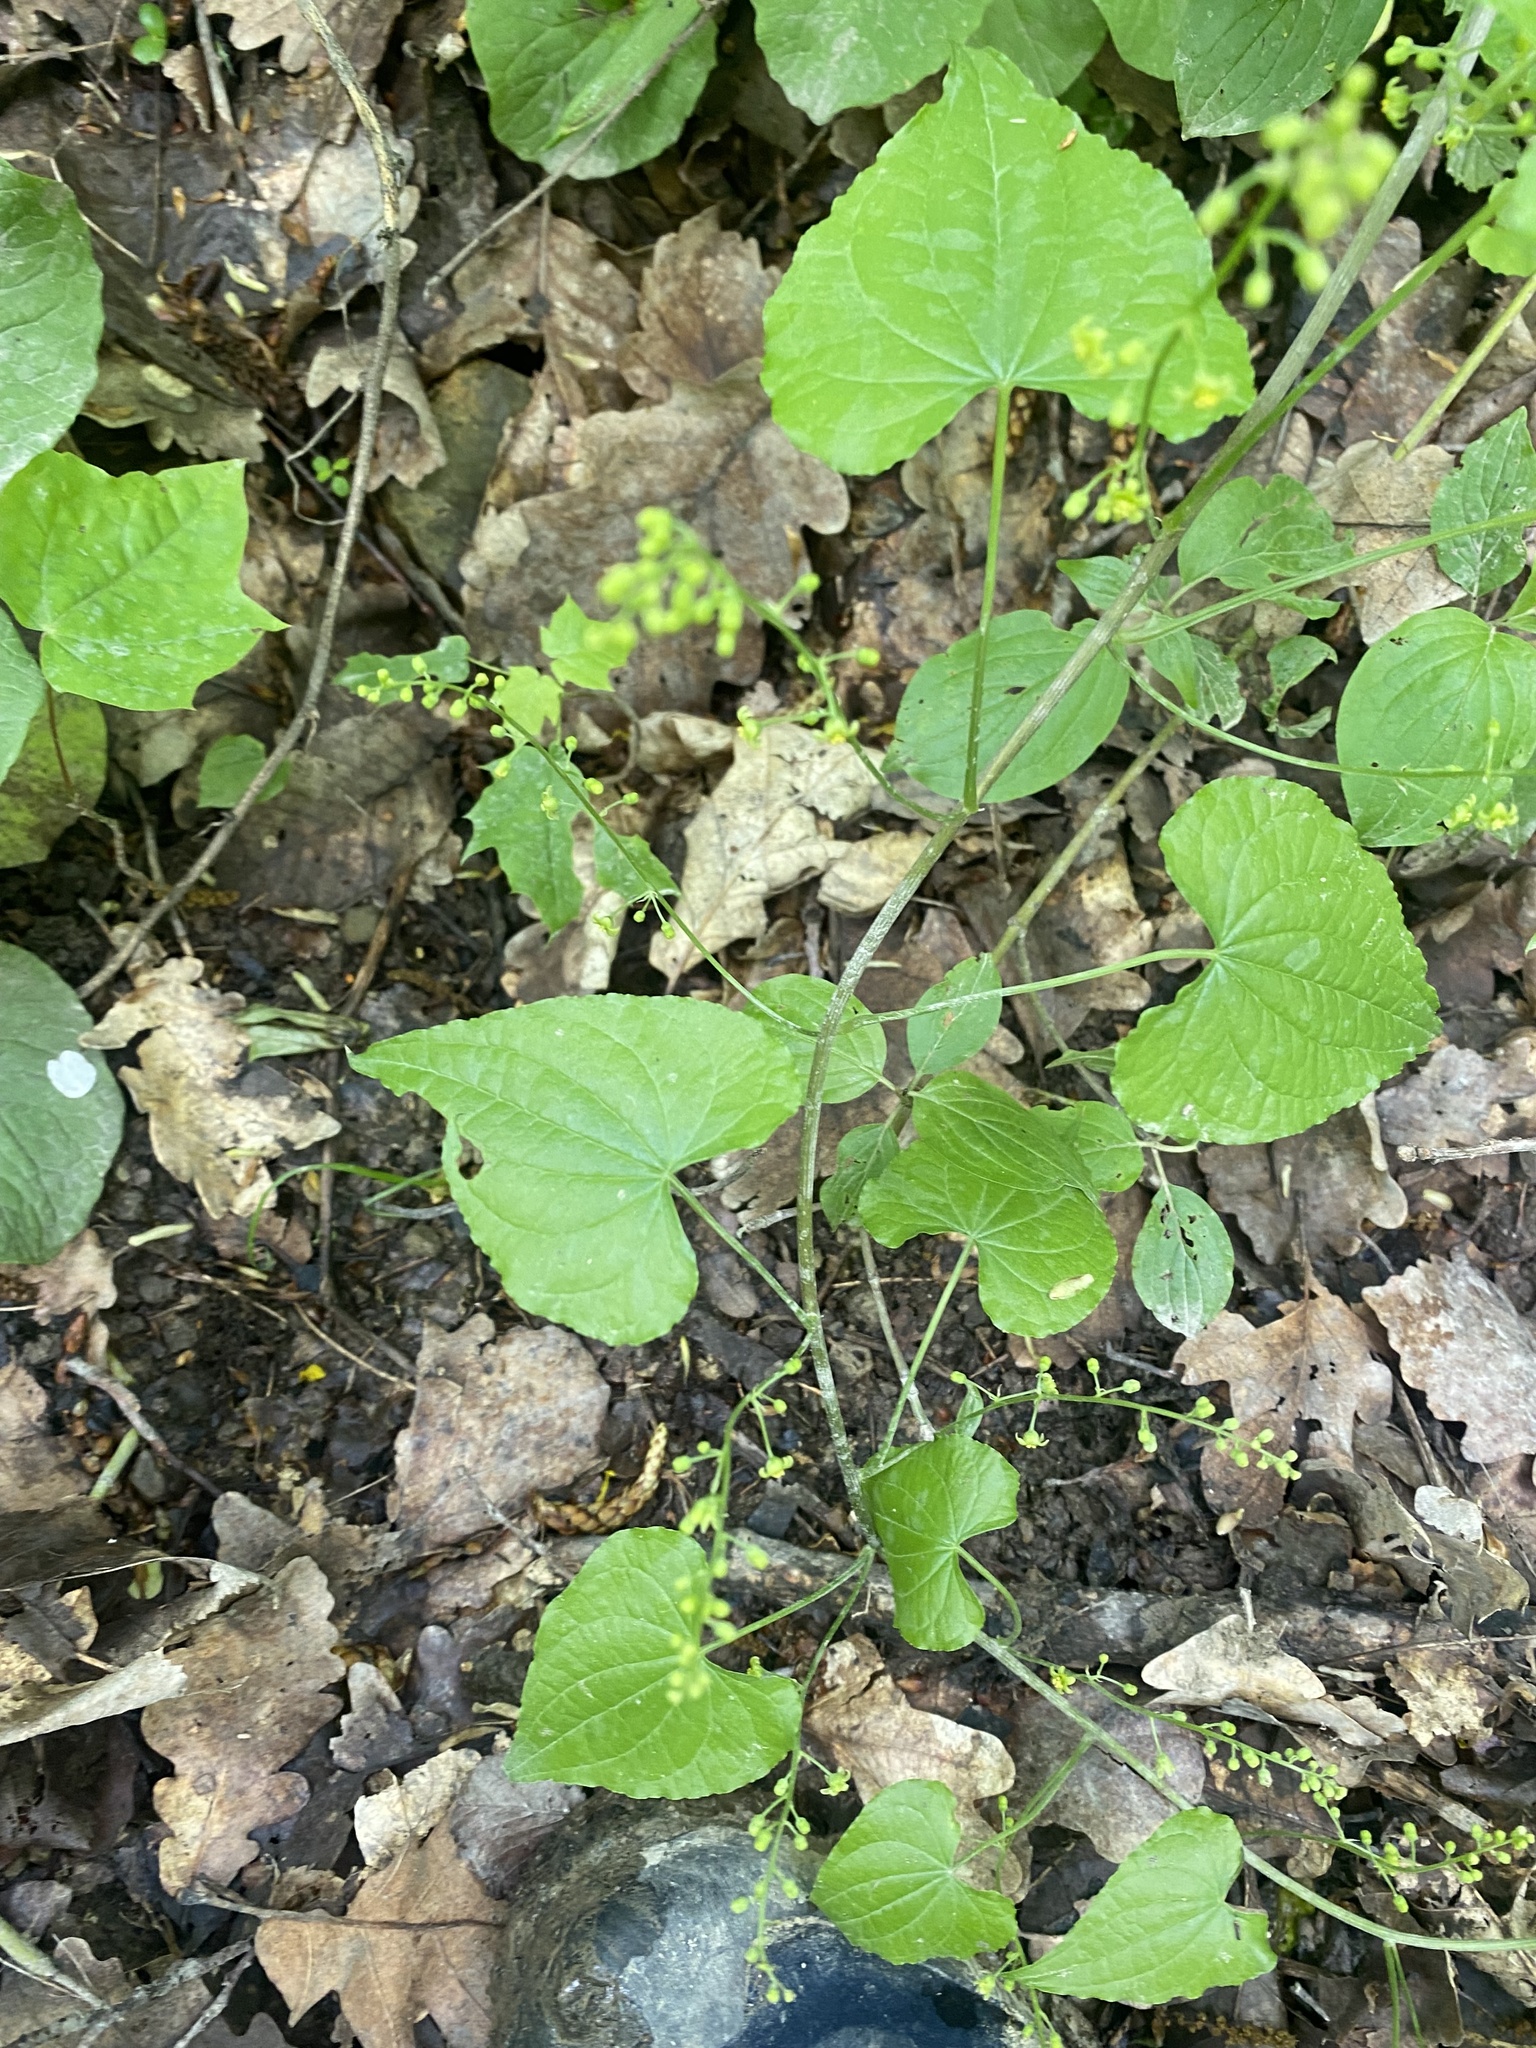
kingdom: Plantae
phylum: Tracheophyta
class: Liliopsida
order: Dioscoreales
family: Dioscoreaceae
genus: Dioscorea
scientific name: Dioscorea communis
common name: Black-bindweed
